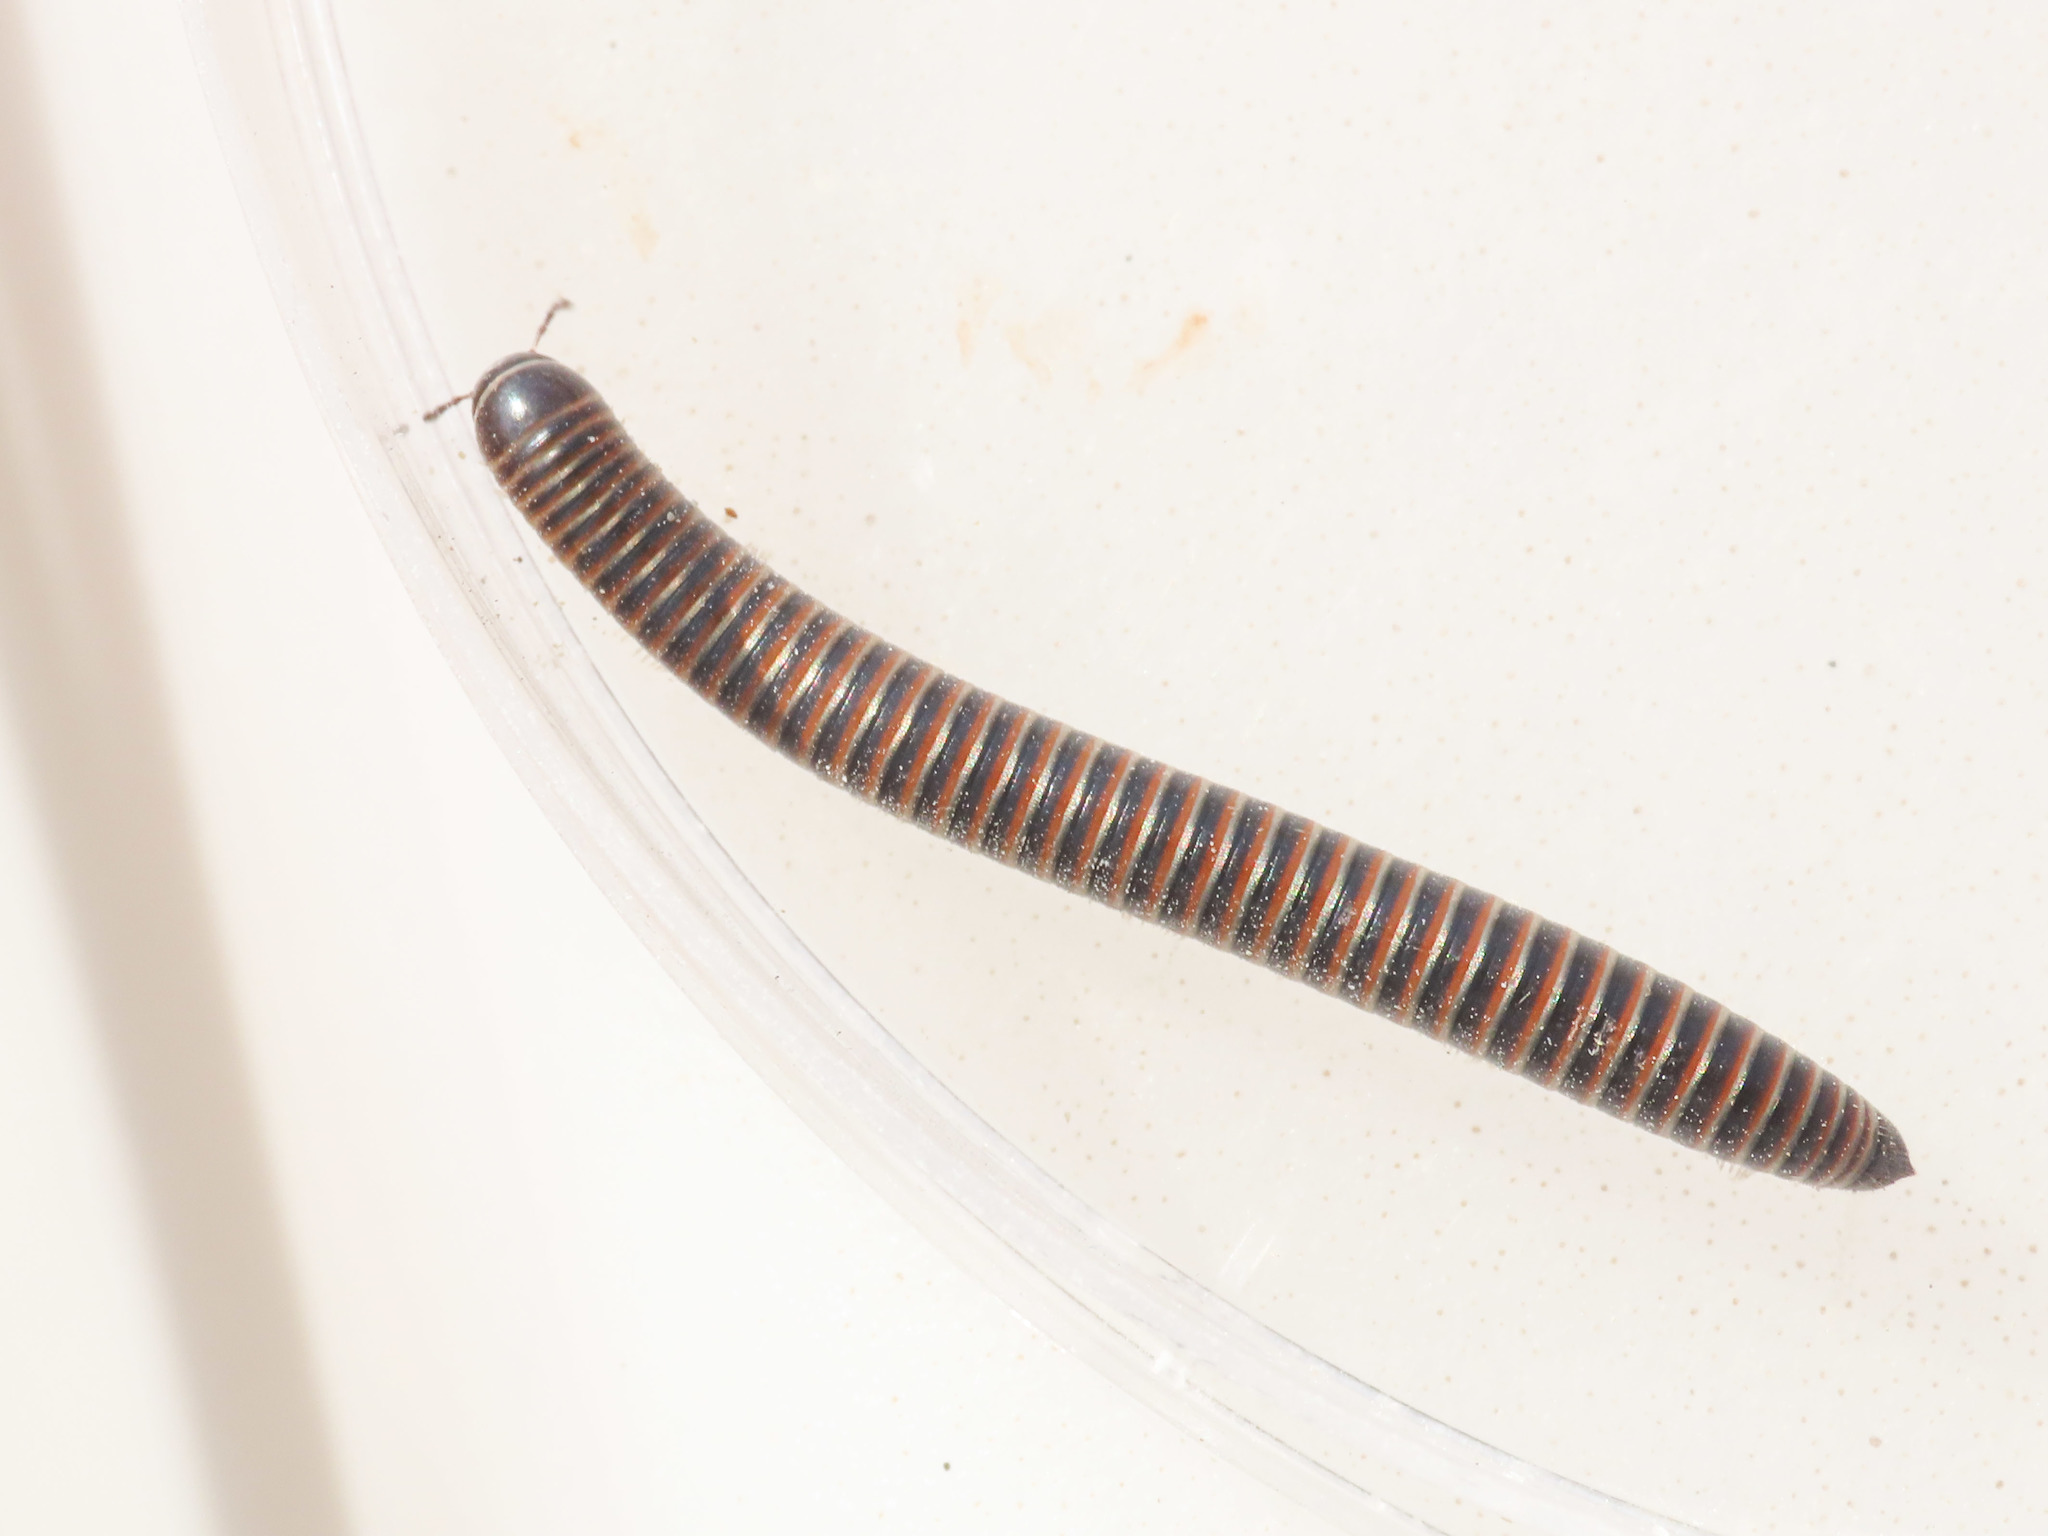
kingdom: Animalia
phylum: Arthropoda
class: Diplopoda
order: Julida
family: Julidae
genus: Acanthoiulus
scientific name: Acanthoiulus cassinensis
